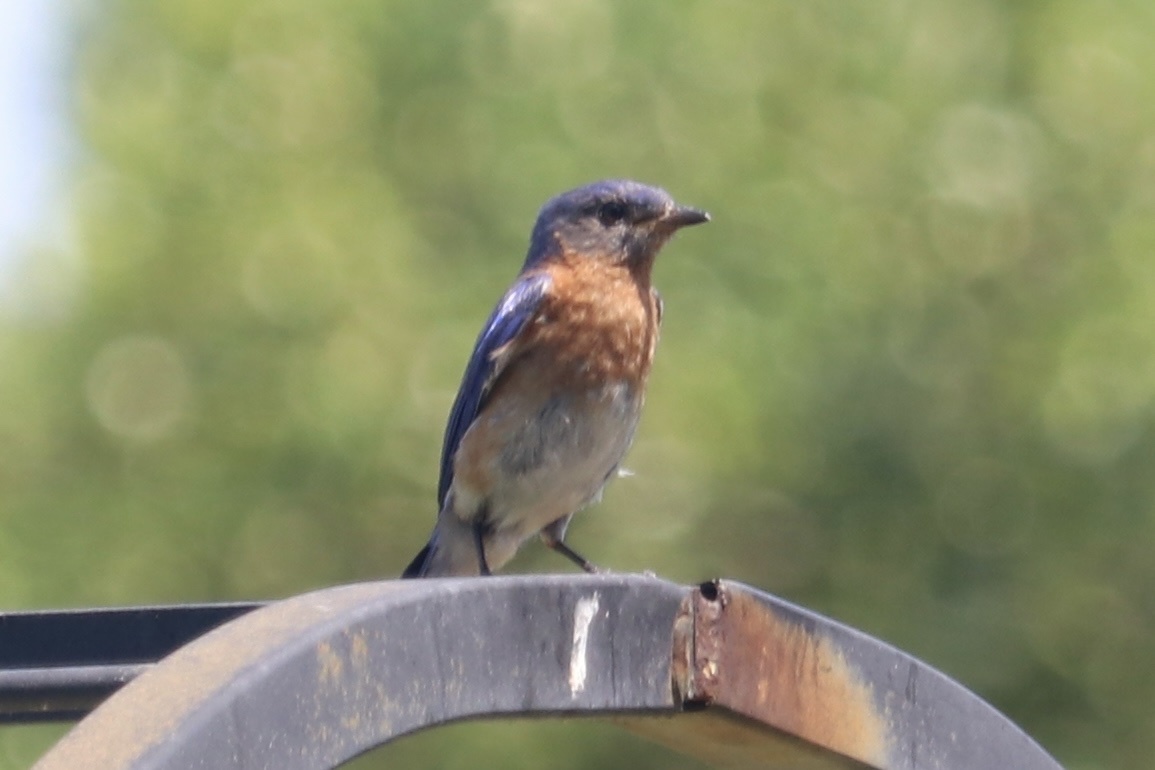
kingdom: Animalia
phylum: Chordata
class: Aves
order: Passeriformes
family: Turdidae
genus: Sialia
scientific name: Sialia sialis
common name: Eastern bluebird
